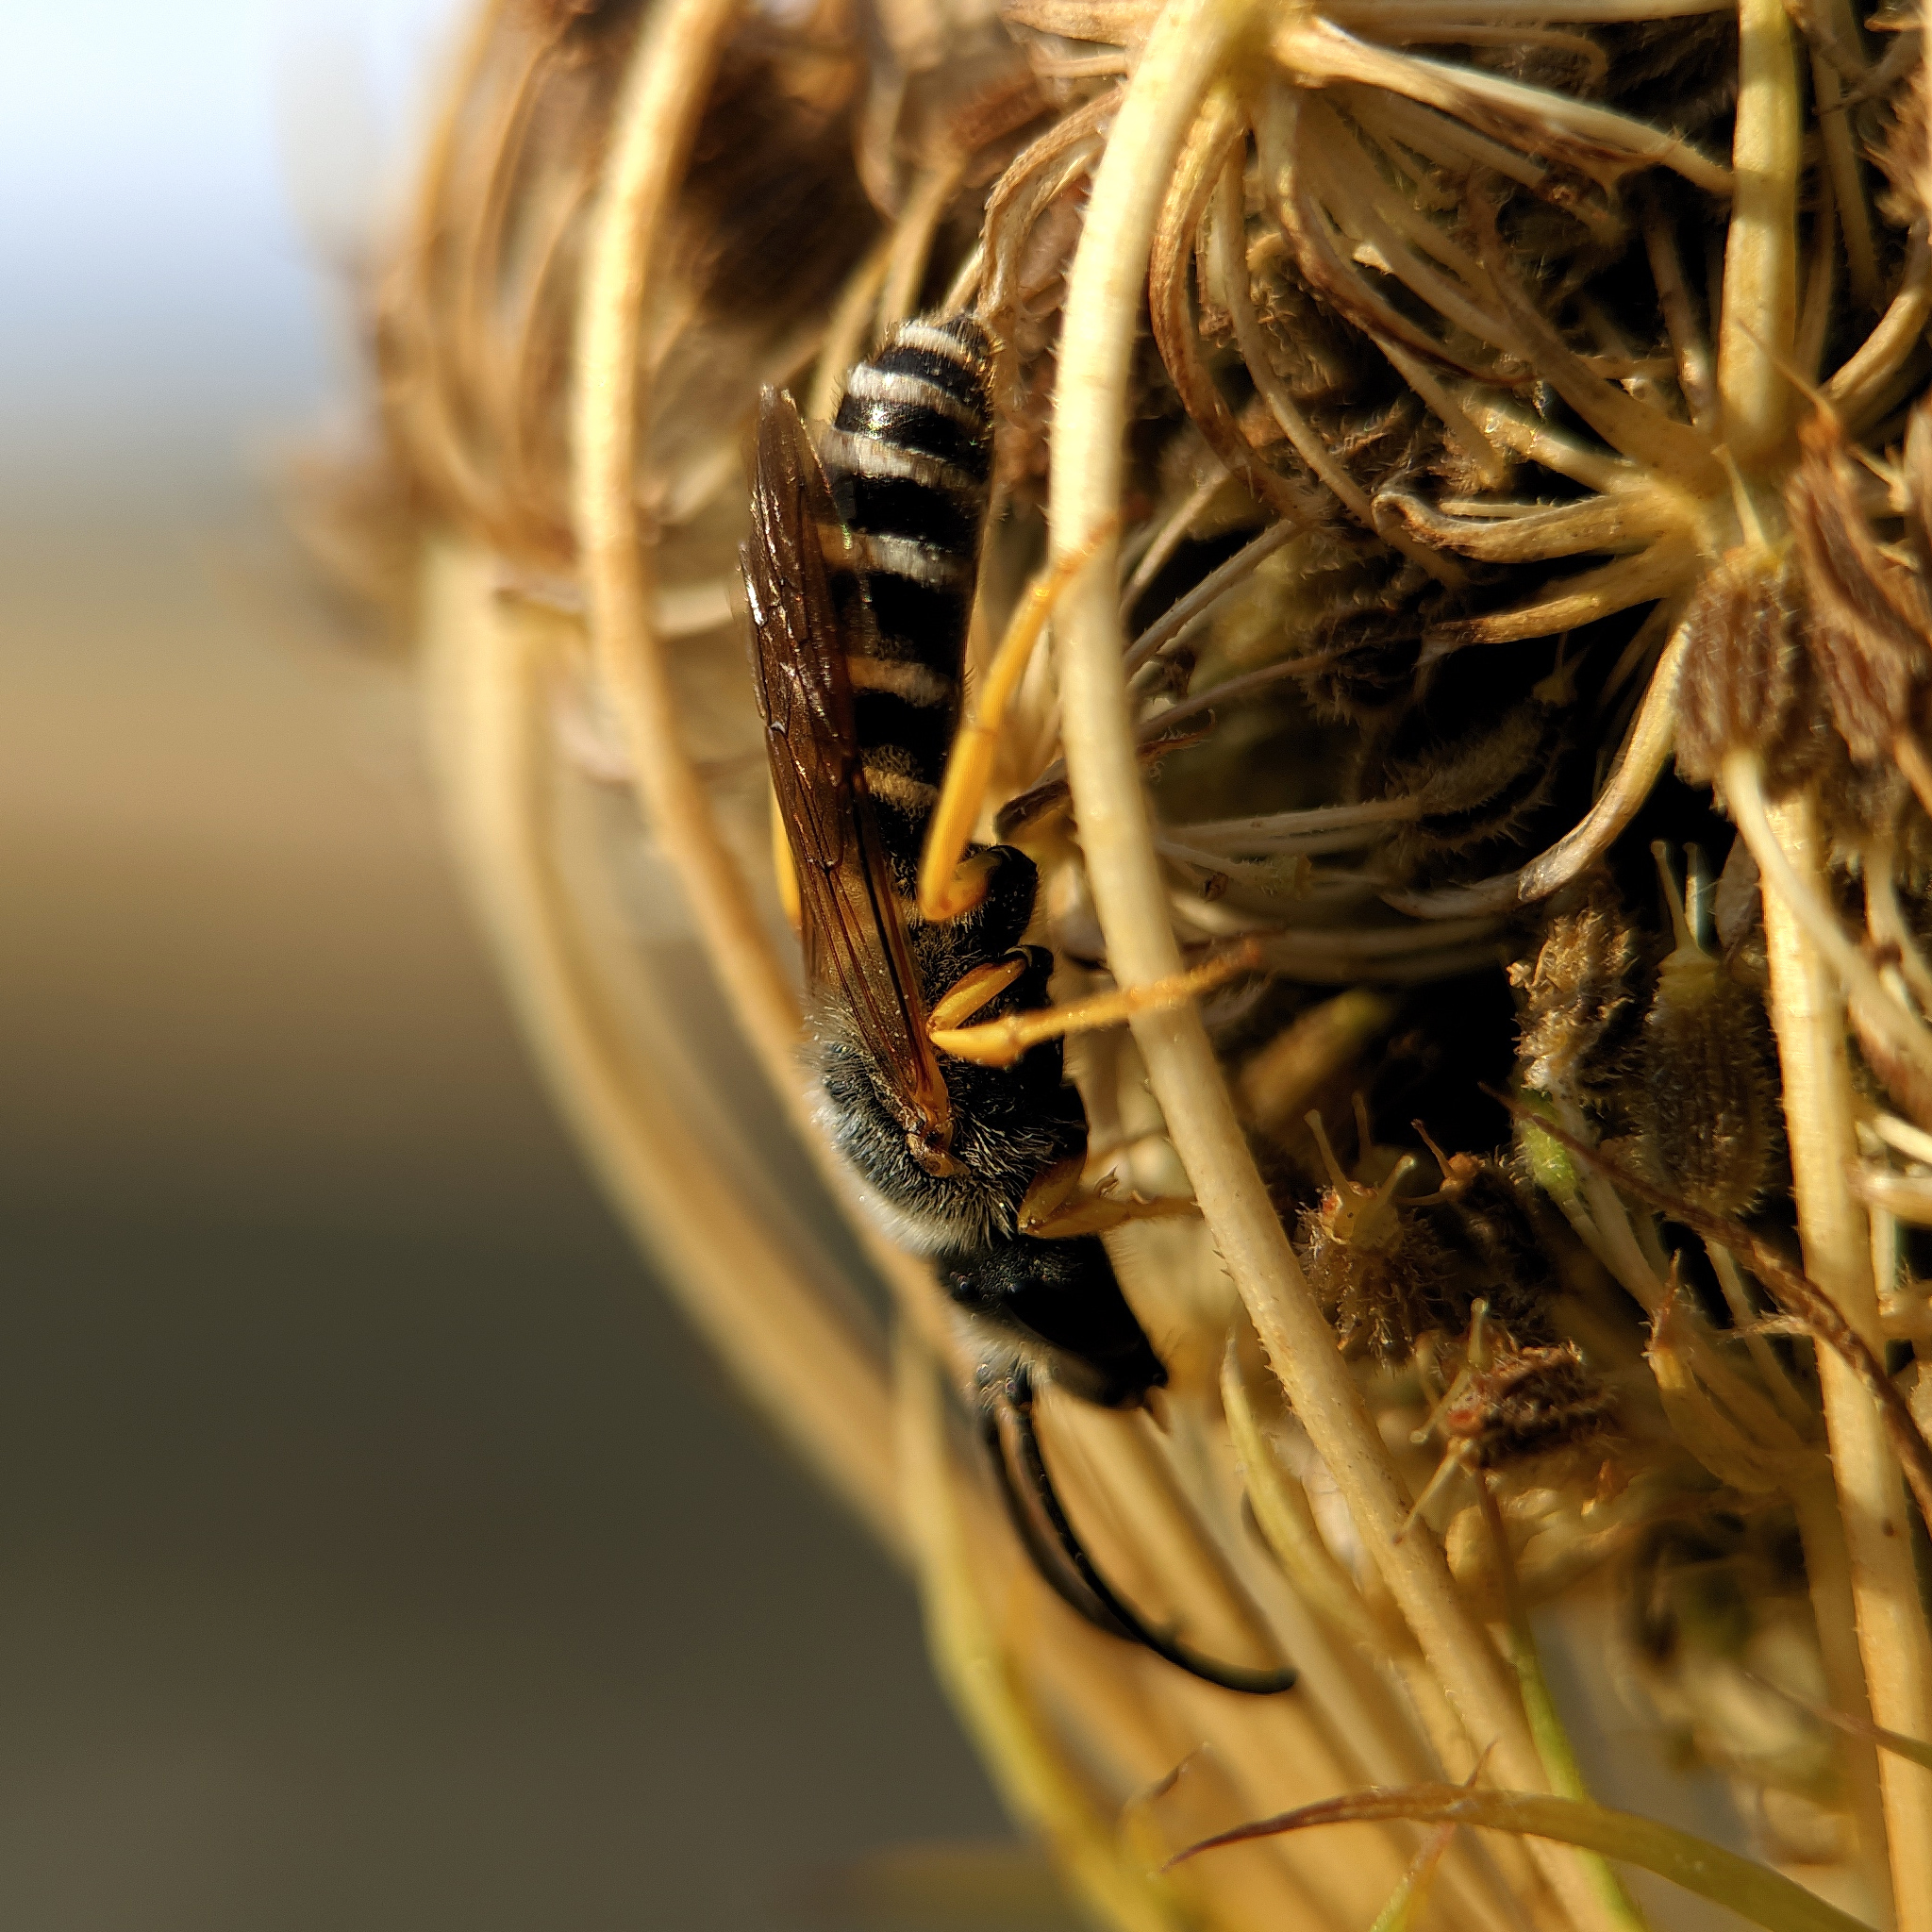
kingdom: Animalia
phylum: Arthropoda
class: Insecta
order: Hymenoptera
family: Halictidae
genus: Halictus
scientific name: Halictus scabiosae
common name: Great banded furrow bee
